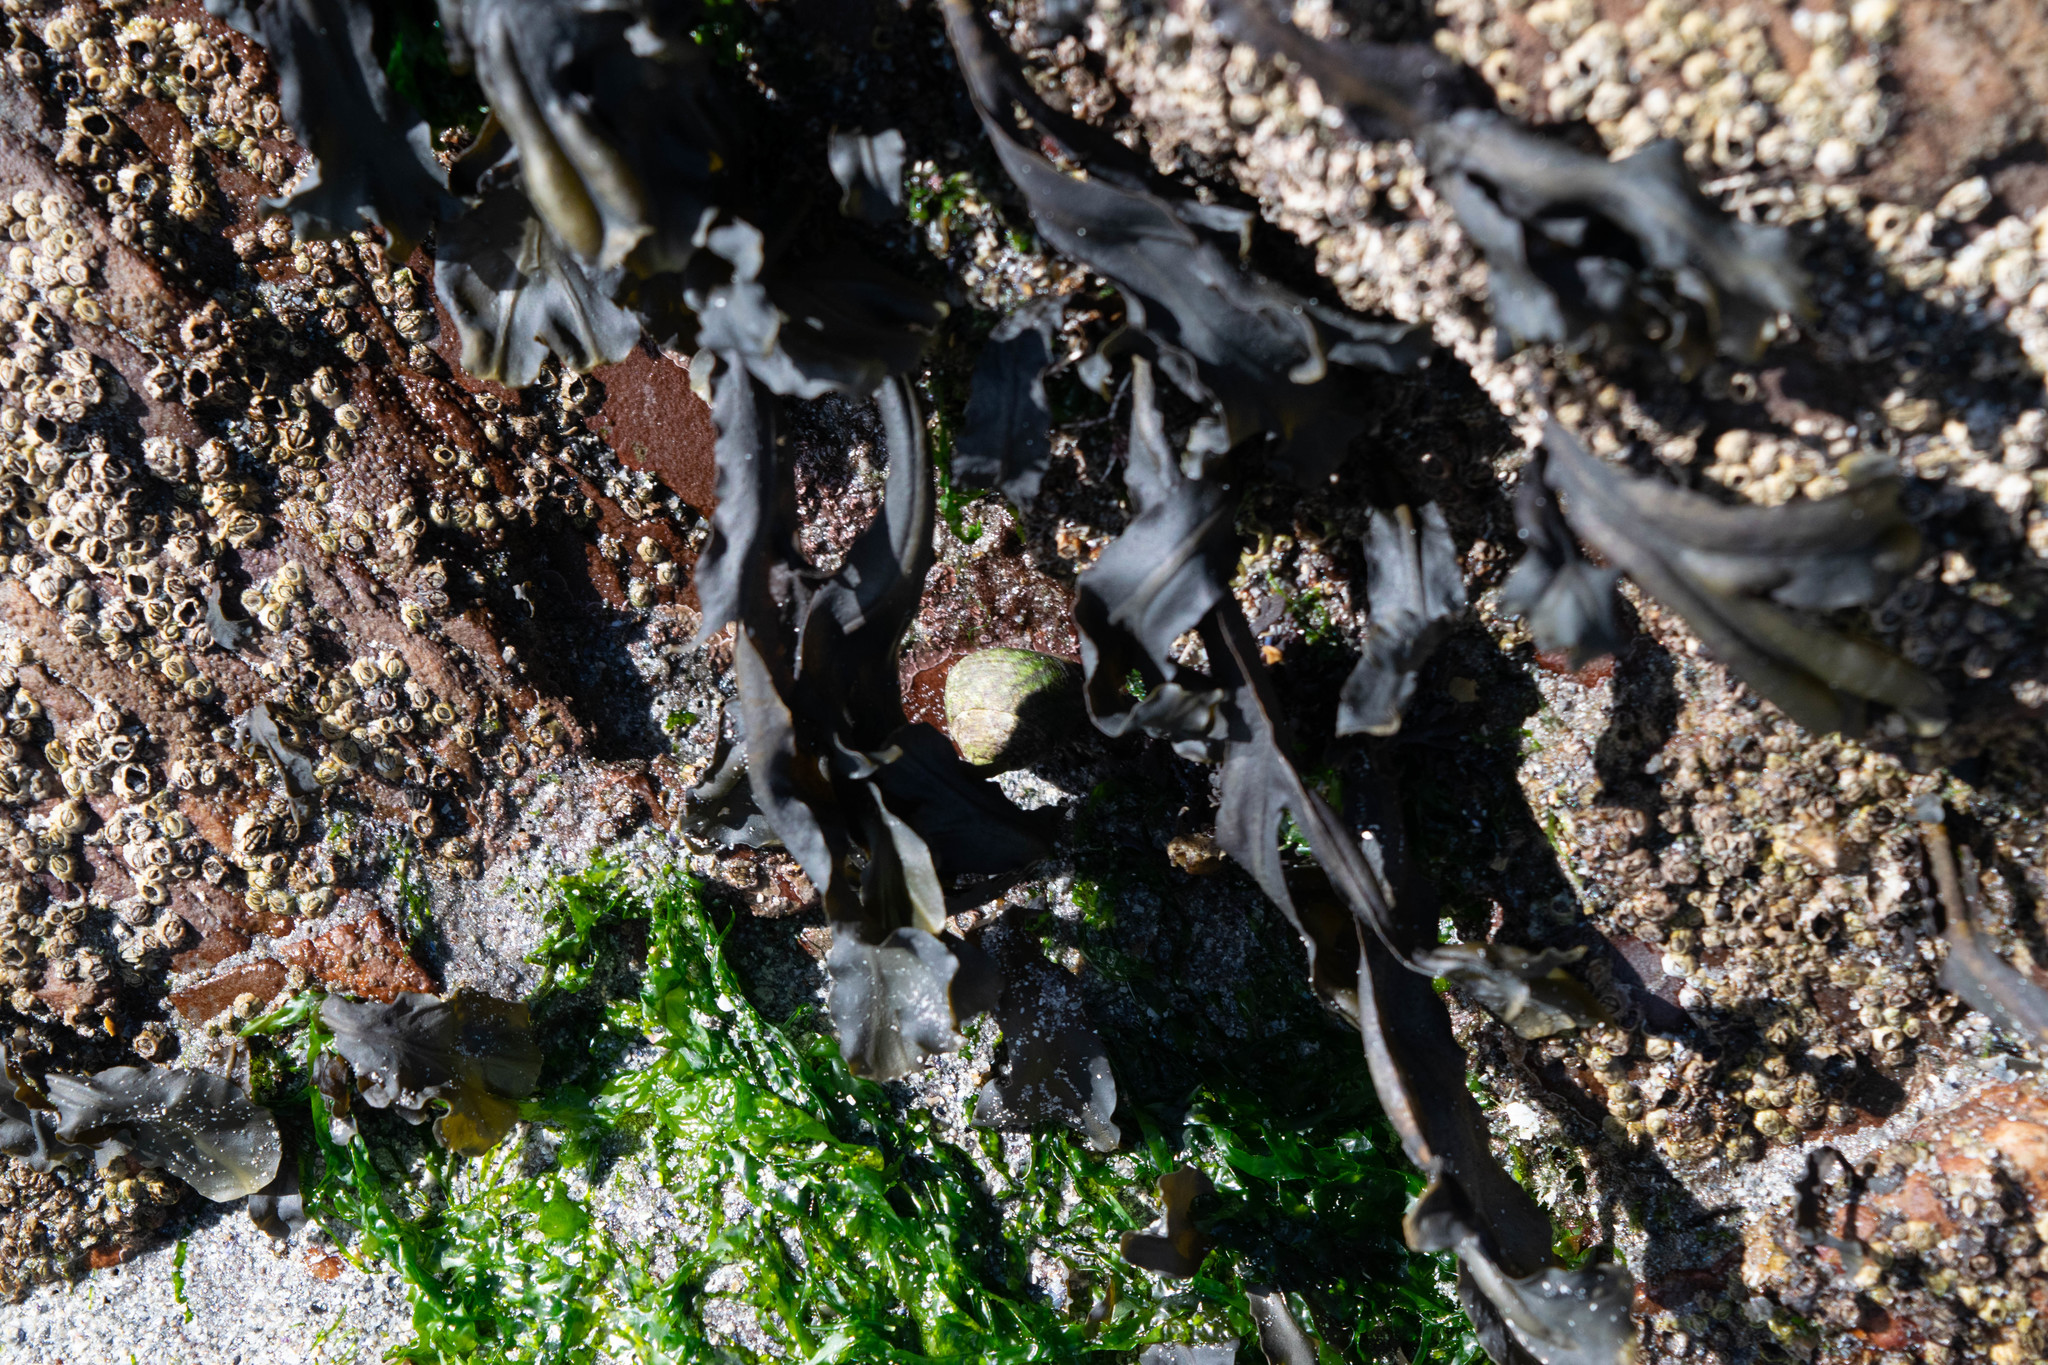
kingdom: Animalia
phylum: Arthropoda
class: Maxillopoda
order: Sessilia
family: Chthamalidae
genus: Chthamalus
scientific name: Chthamalus stellatus
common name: Poli's stellate barnacle
